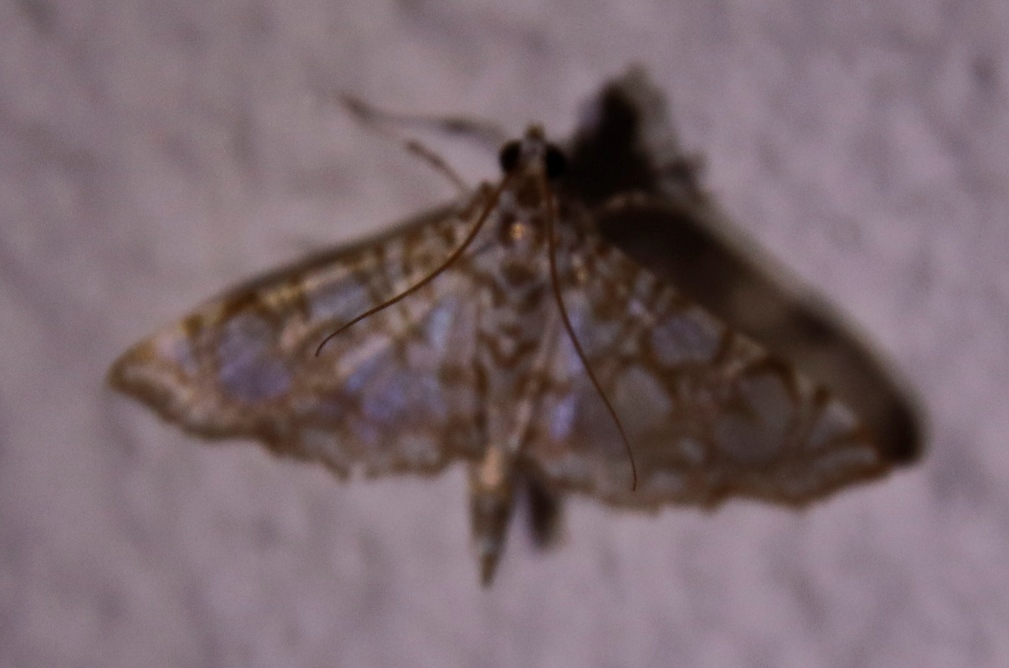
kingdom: Animalia
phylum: Arthropoda
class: Insecta
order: Lepidoptera
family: Crambidae
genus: Glyphodes
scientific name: Glyphodes onychinalis
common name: Swan plant moth
